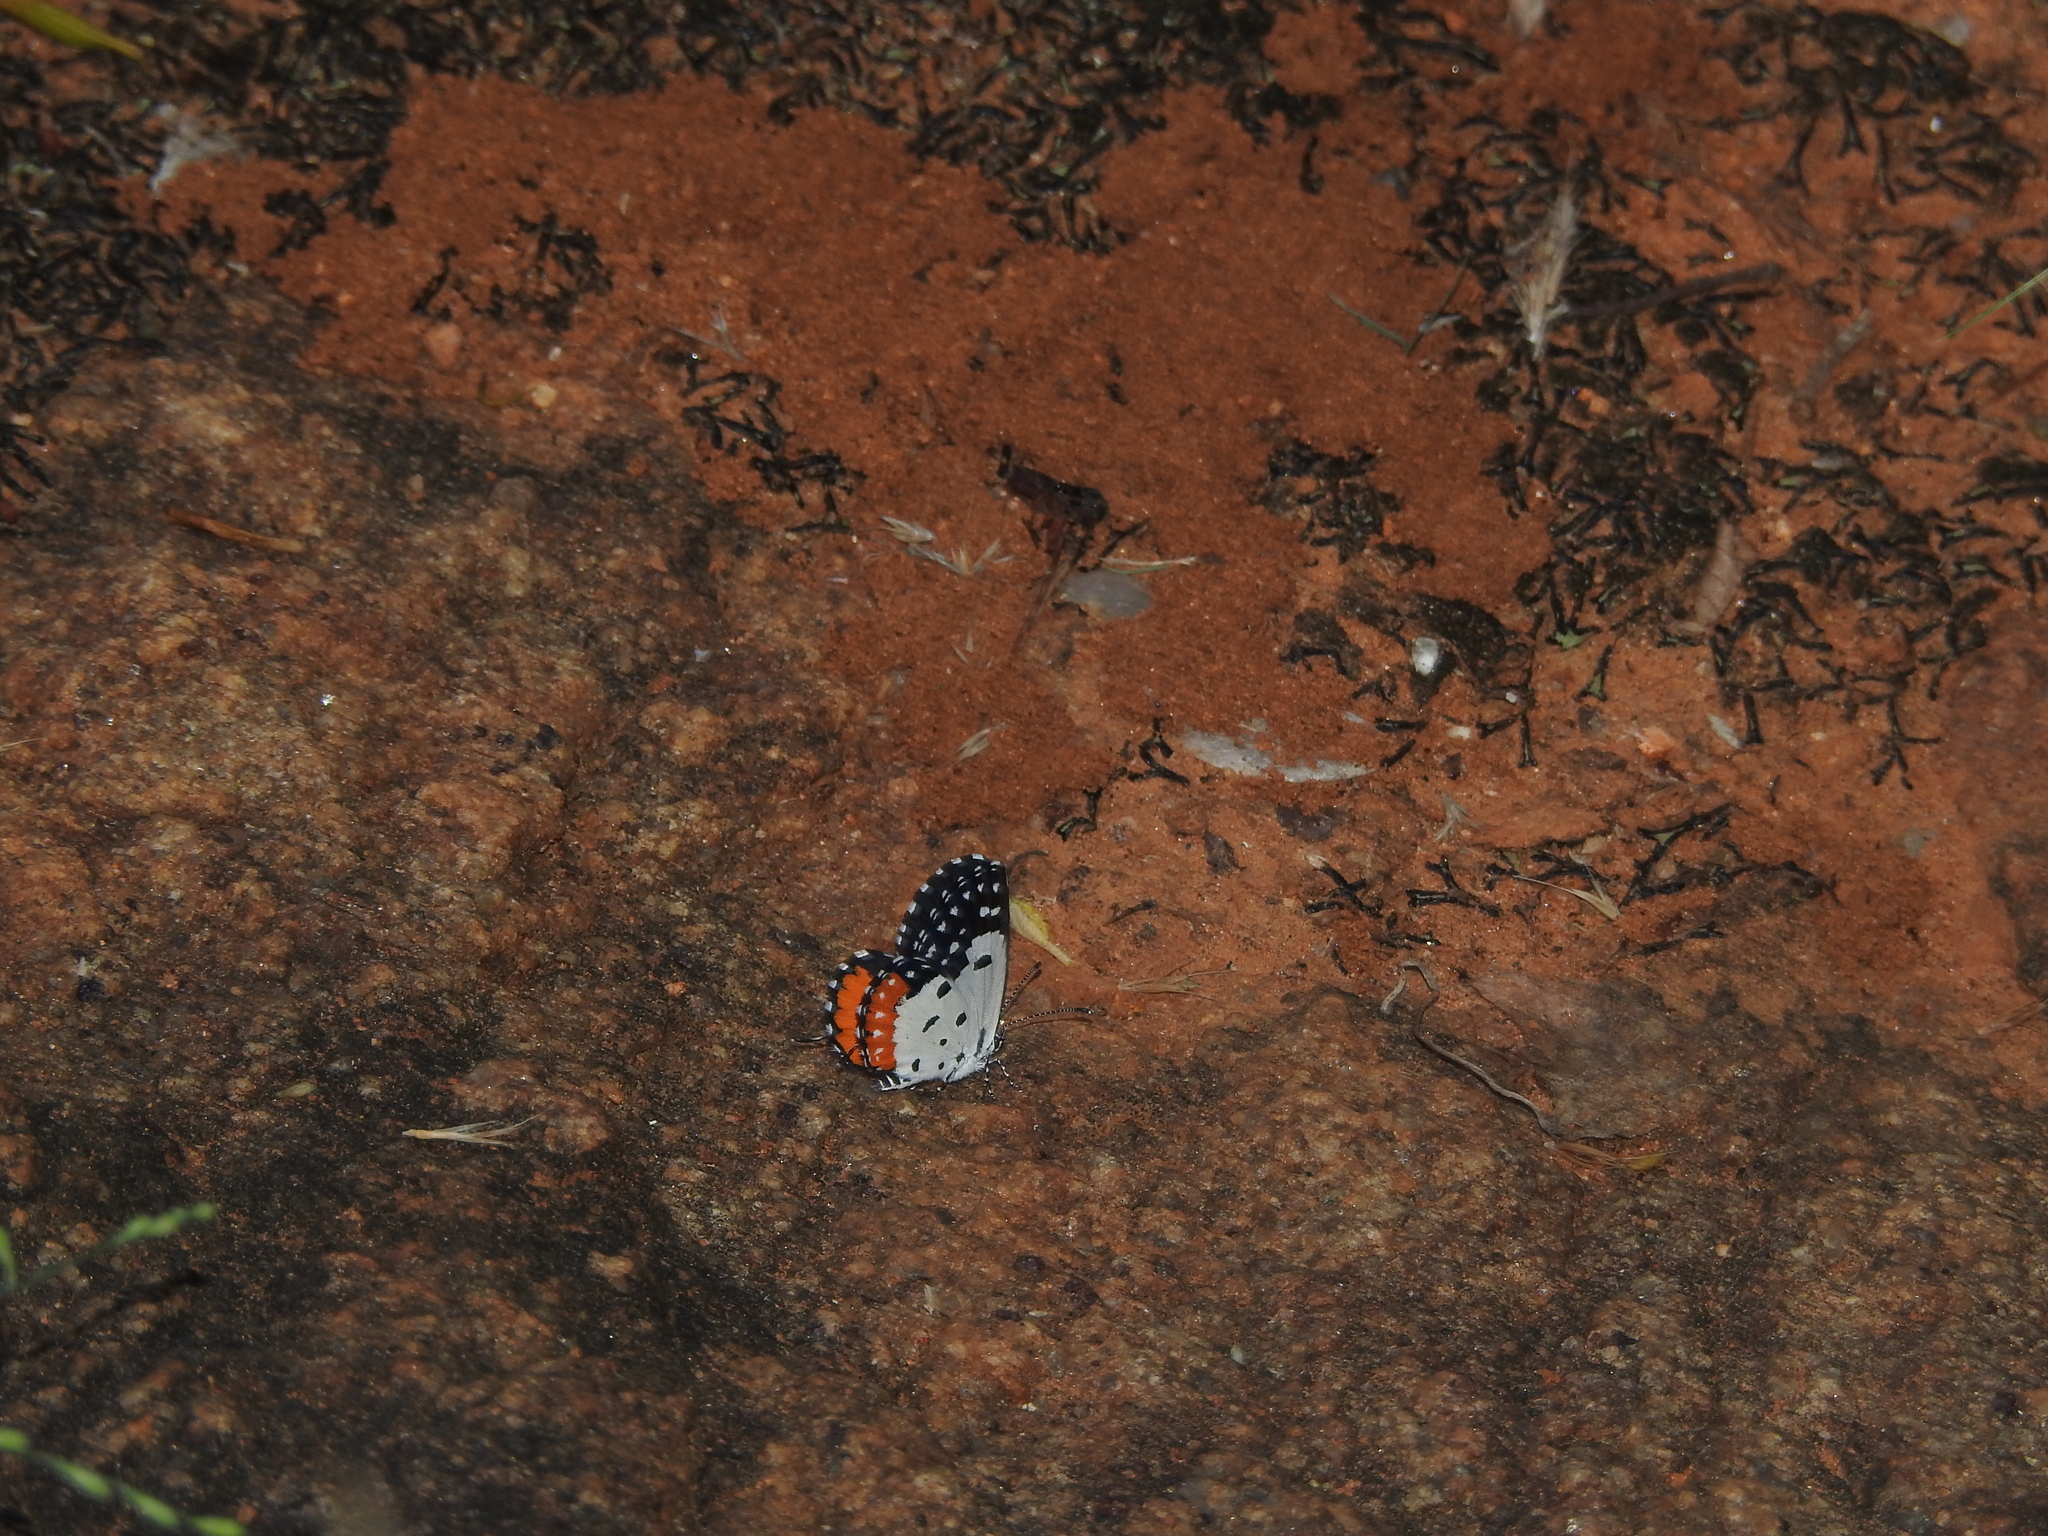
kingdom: Animalia
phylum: Arthropoda
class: Insecta
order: Lepidoptera
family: Lycaenidae
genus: Talicada
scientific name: Talicada nyseus
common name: Red pierrot
